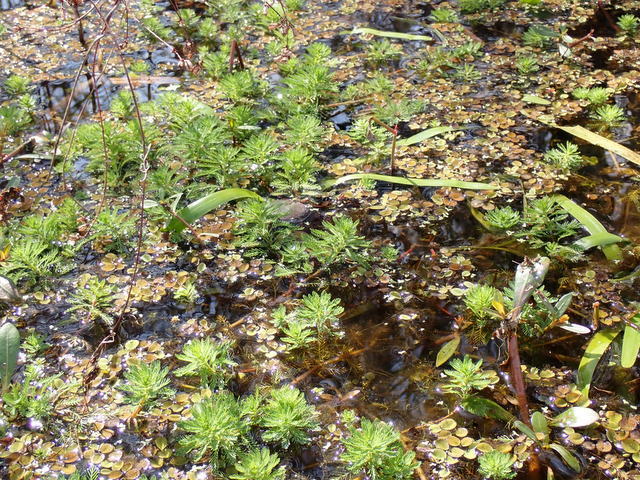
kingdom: Plantae
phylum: Tracheophyta
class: Magnoliopsida
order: Saxifragales
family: Haloragaceae
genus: Myriophyllum
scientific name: Myriophyllum aquaticum
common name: Parrot's feather
